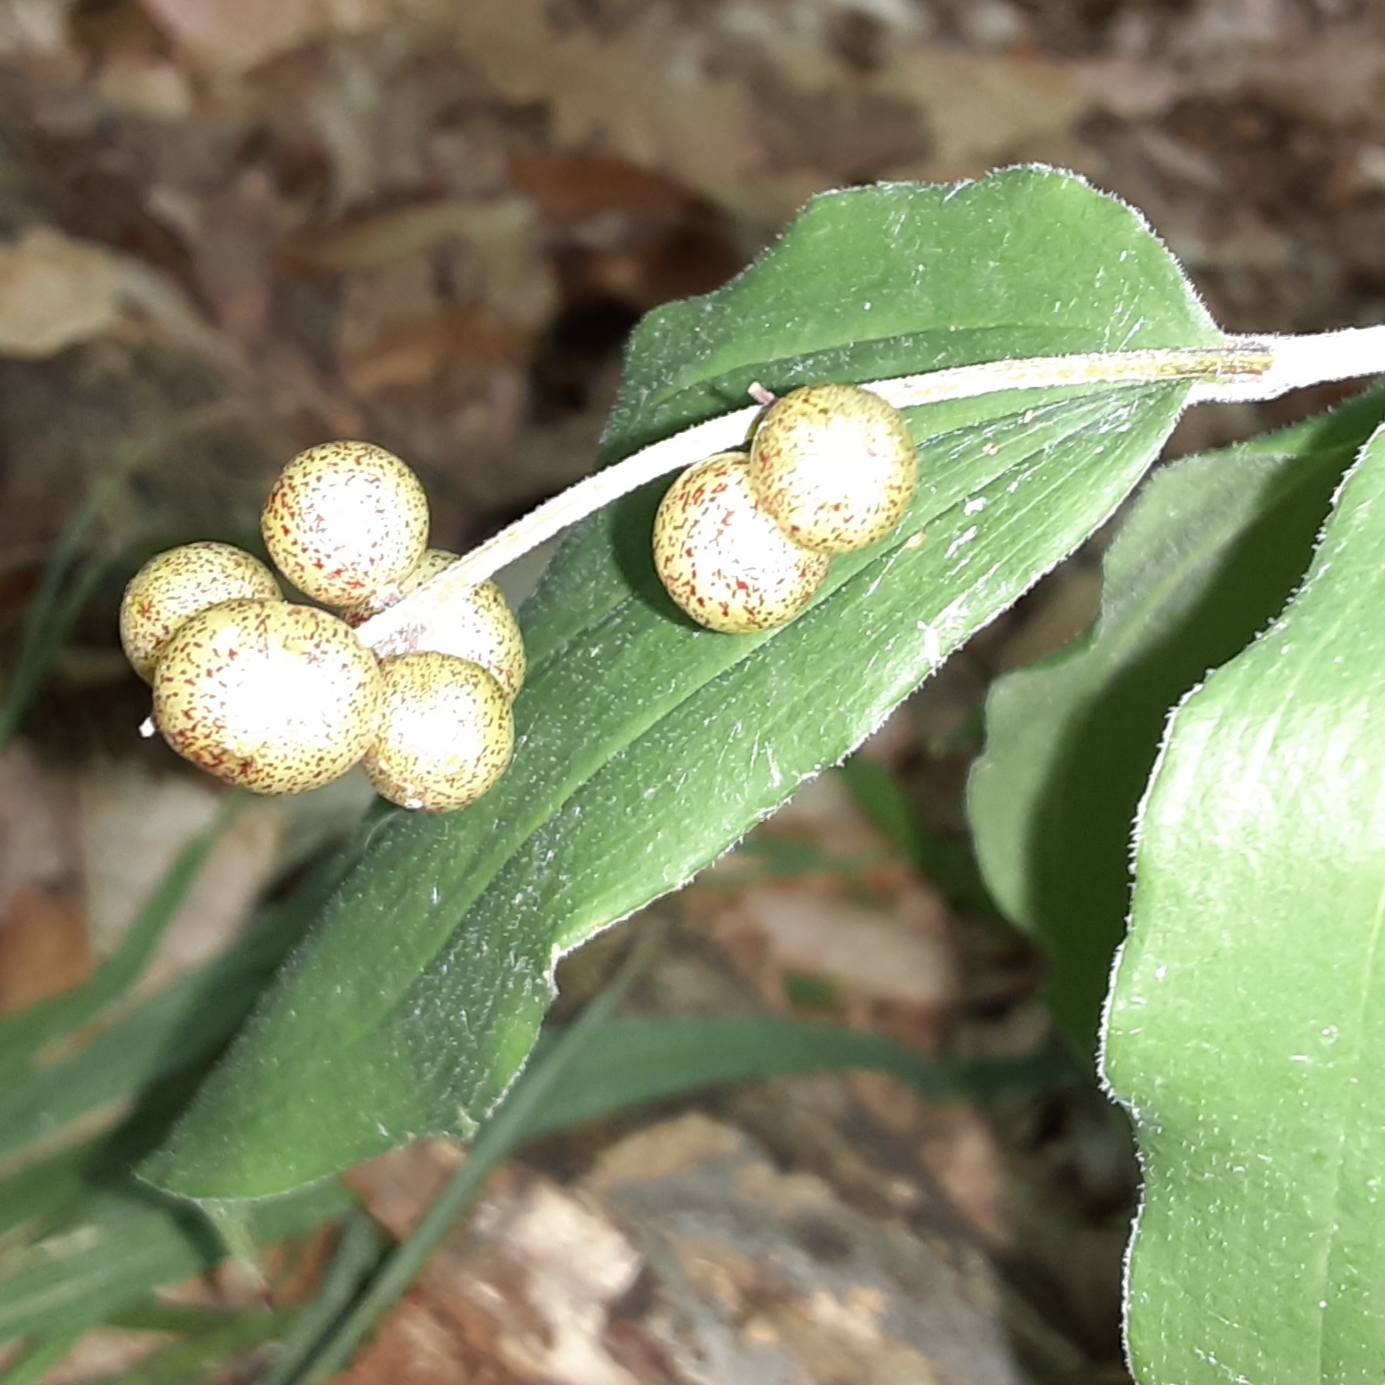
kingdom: Plantae
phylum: Tracheophyta
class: Liliopsida
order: Asparagales
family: Asparagaceae
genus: Maianthemum
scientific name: Maianthemum racemosum
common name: False spikenard
